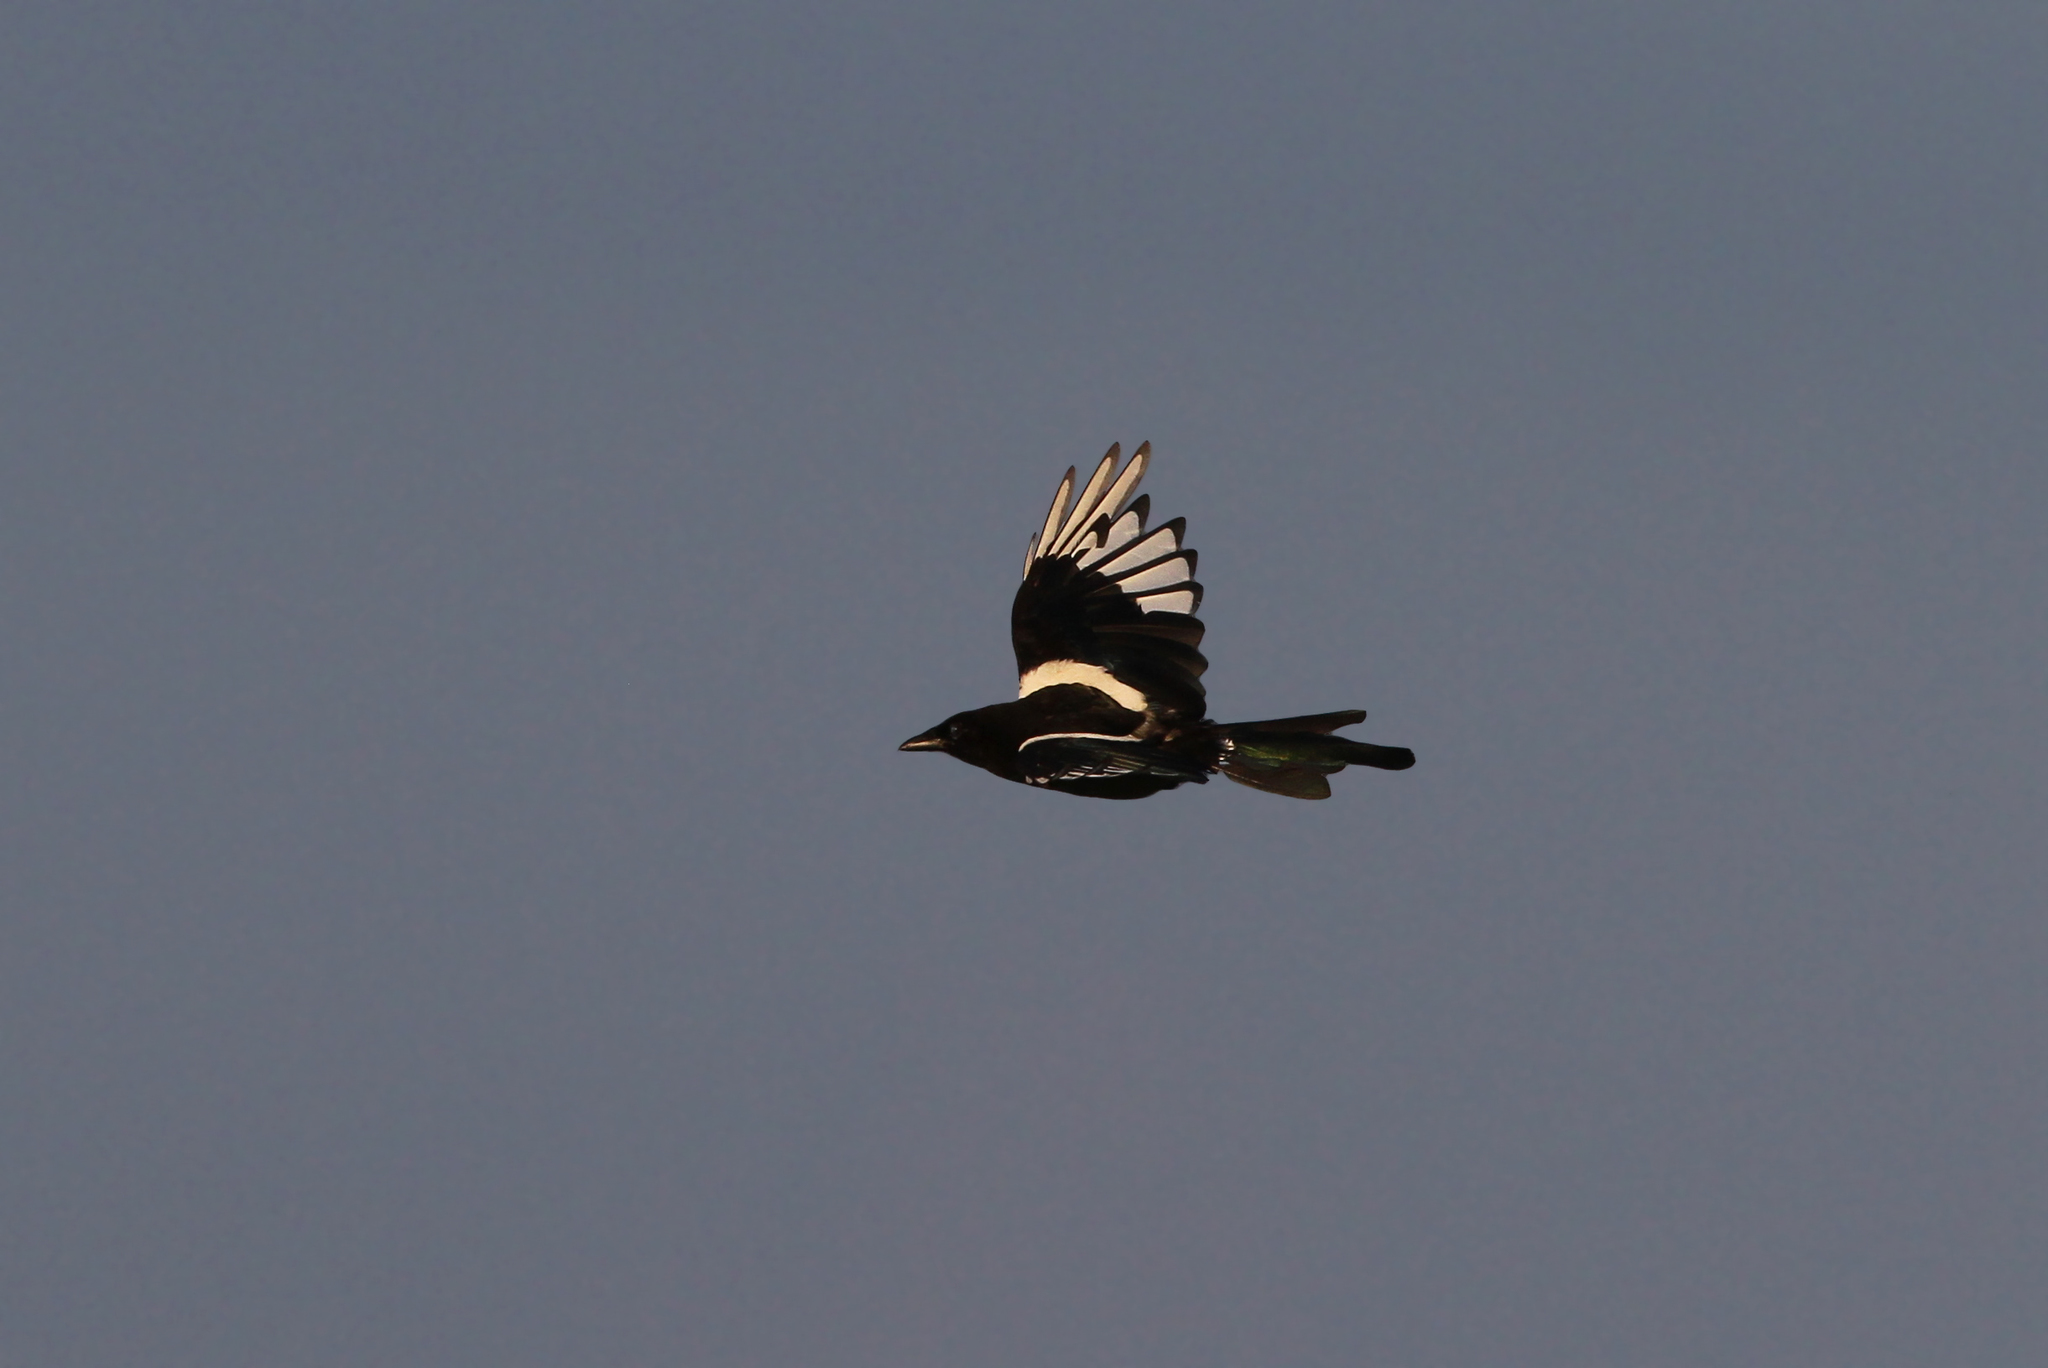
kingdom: Animalia
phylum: Chordata
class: Aves
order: Passeriformes
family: Corvidae
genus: Pica
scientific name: Pica pica
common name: Eurasian magpie
